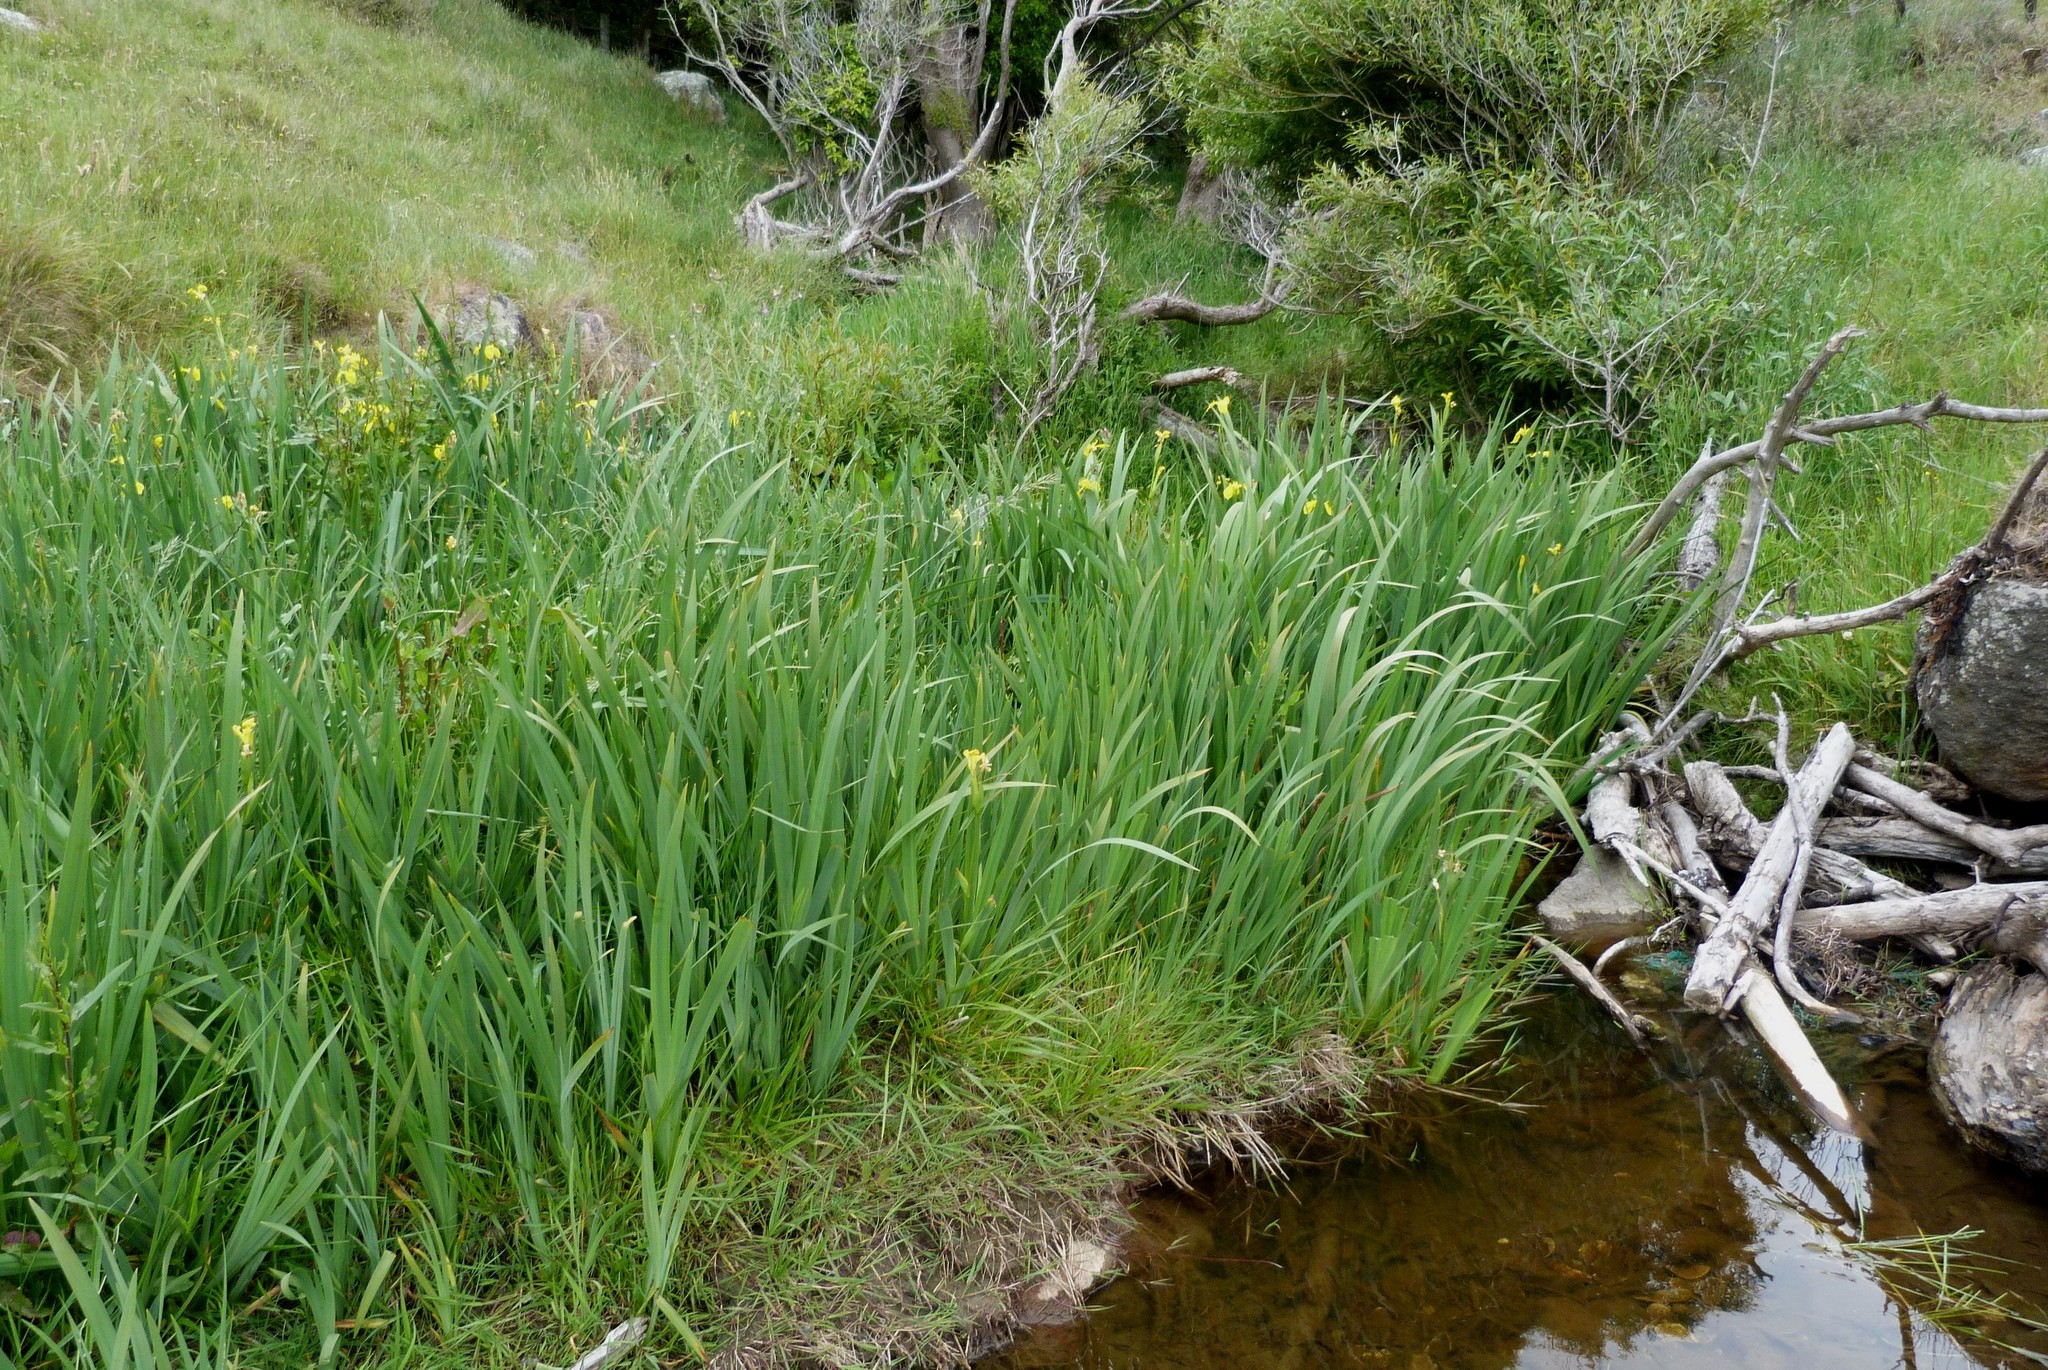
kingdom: Plantae
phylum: Tracheophyta
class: Liliopsida
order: Asparagales
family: Iridaceae
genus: Iris
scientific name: Iris pseudacorus
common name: Yellow flag
